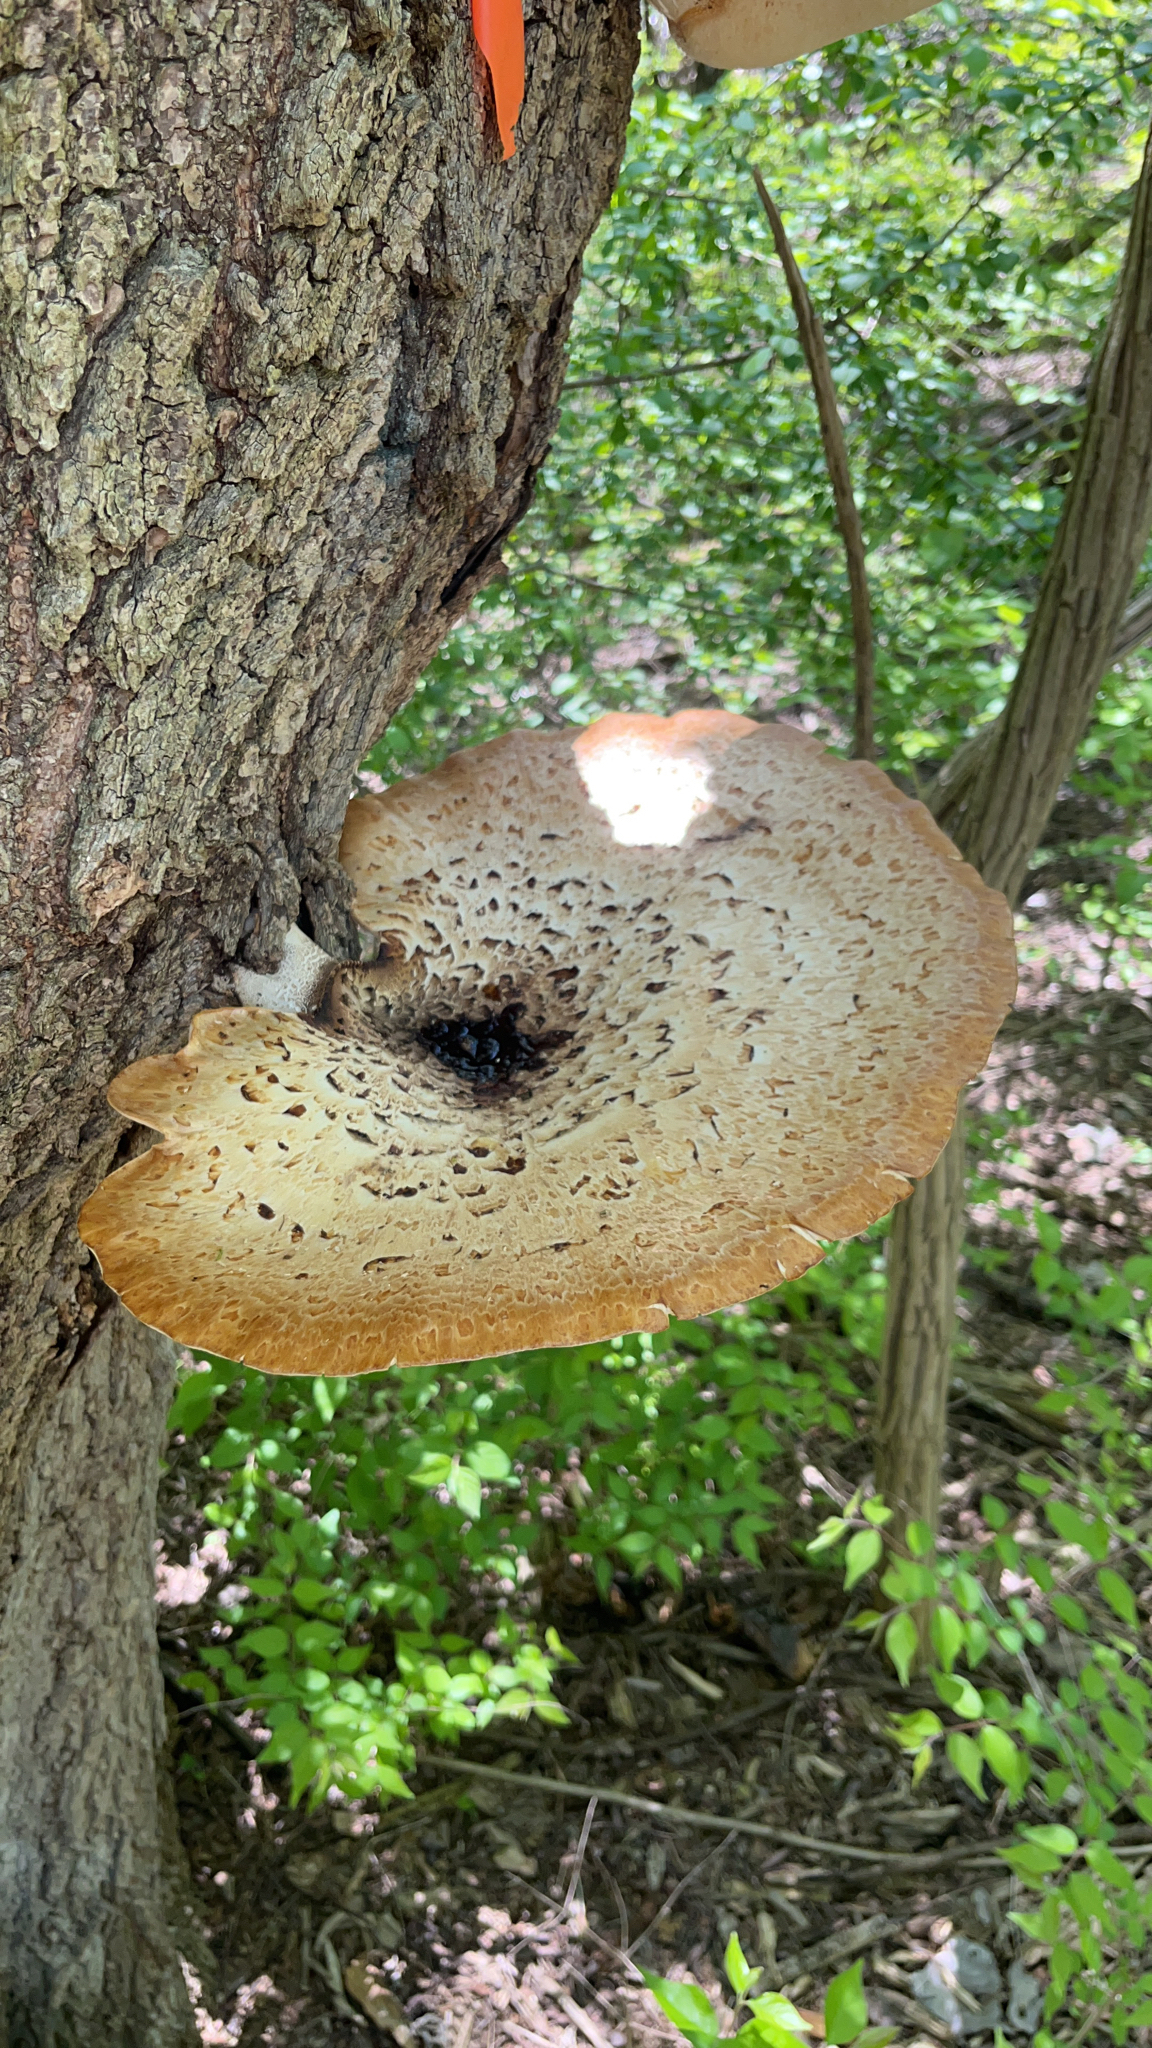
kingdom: Fungi
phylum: Basidiomycota
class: Agaricomycetes
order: Polyporales
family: Polyporaceae
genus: Cerioporus
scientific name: Cerioporus squamosus
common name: Dryad's saddle
